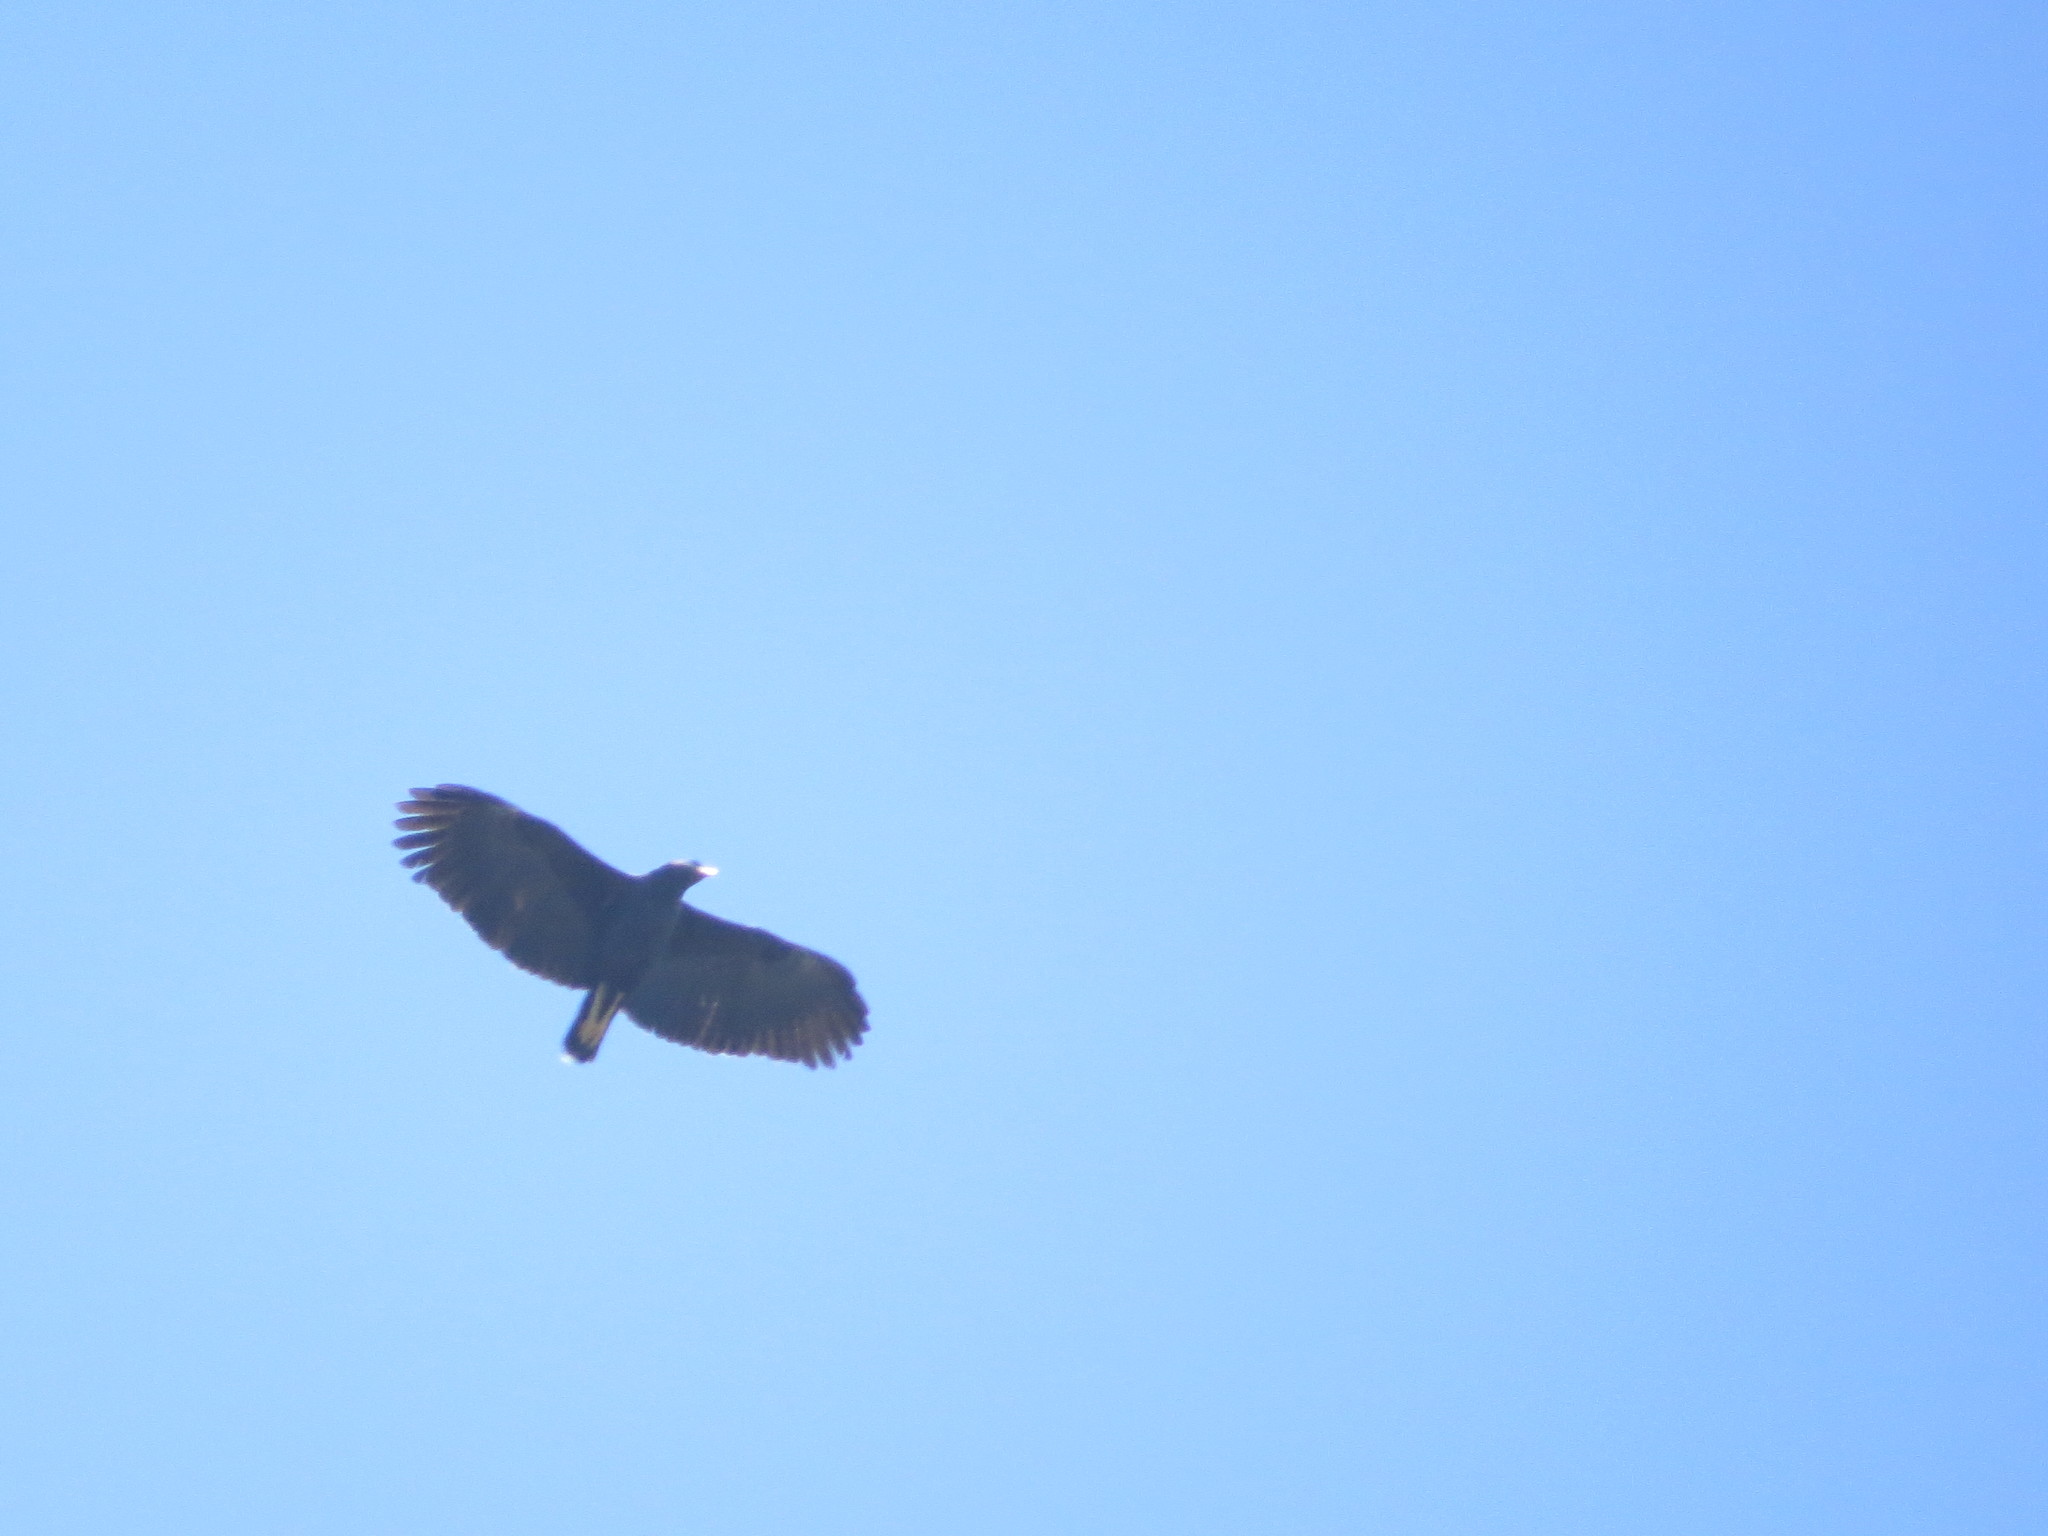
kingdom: Animalia
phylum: Chordata
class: Aves
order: Accipitriformes
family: Accipitridae
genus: Buteogallus
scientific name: Buteogallus urubitinga
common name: Great black hawk
